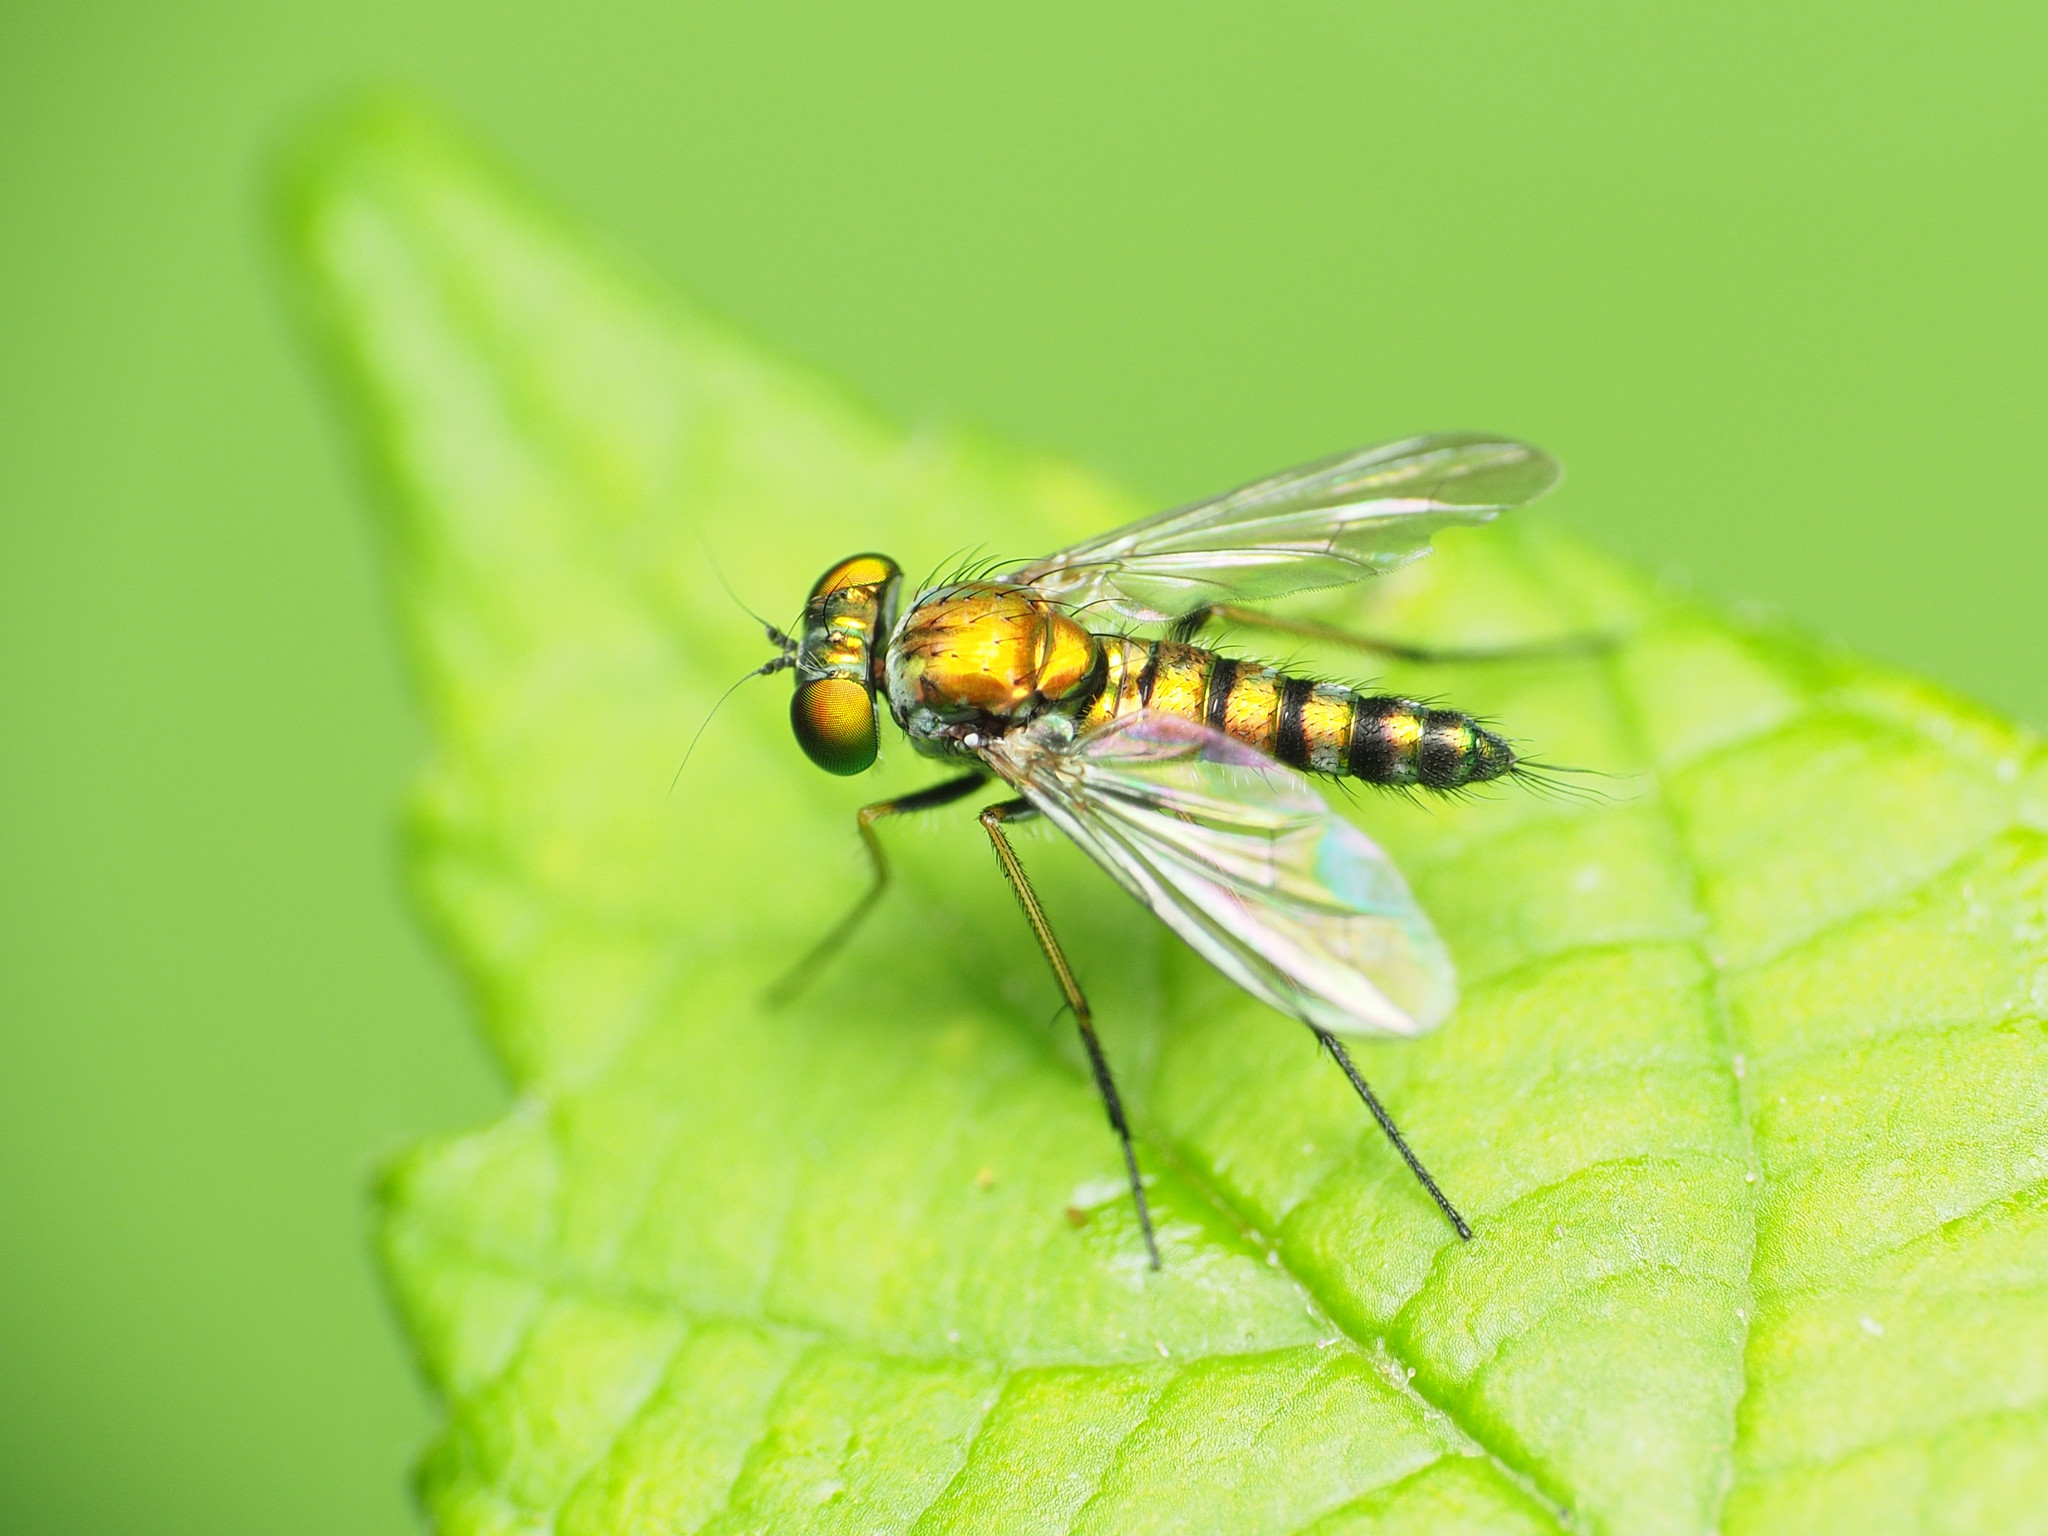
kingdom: Animalia
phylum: Arthropoda
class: Insecta
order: Diptera
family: Dolichopodidae
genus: Condylostylus
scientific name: Condylostylus caudatus
